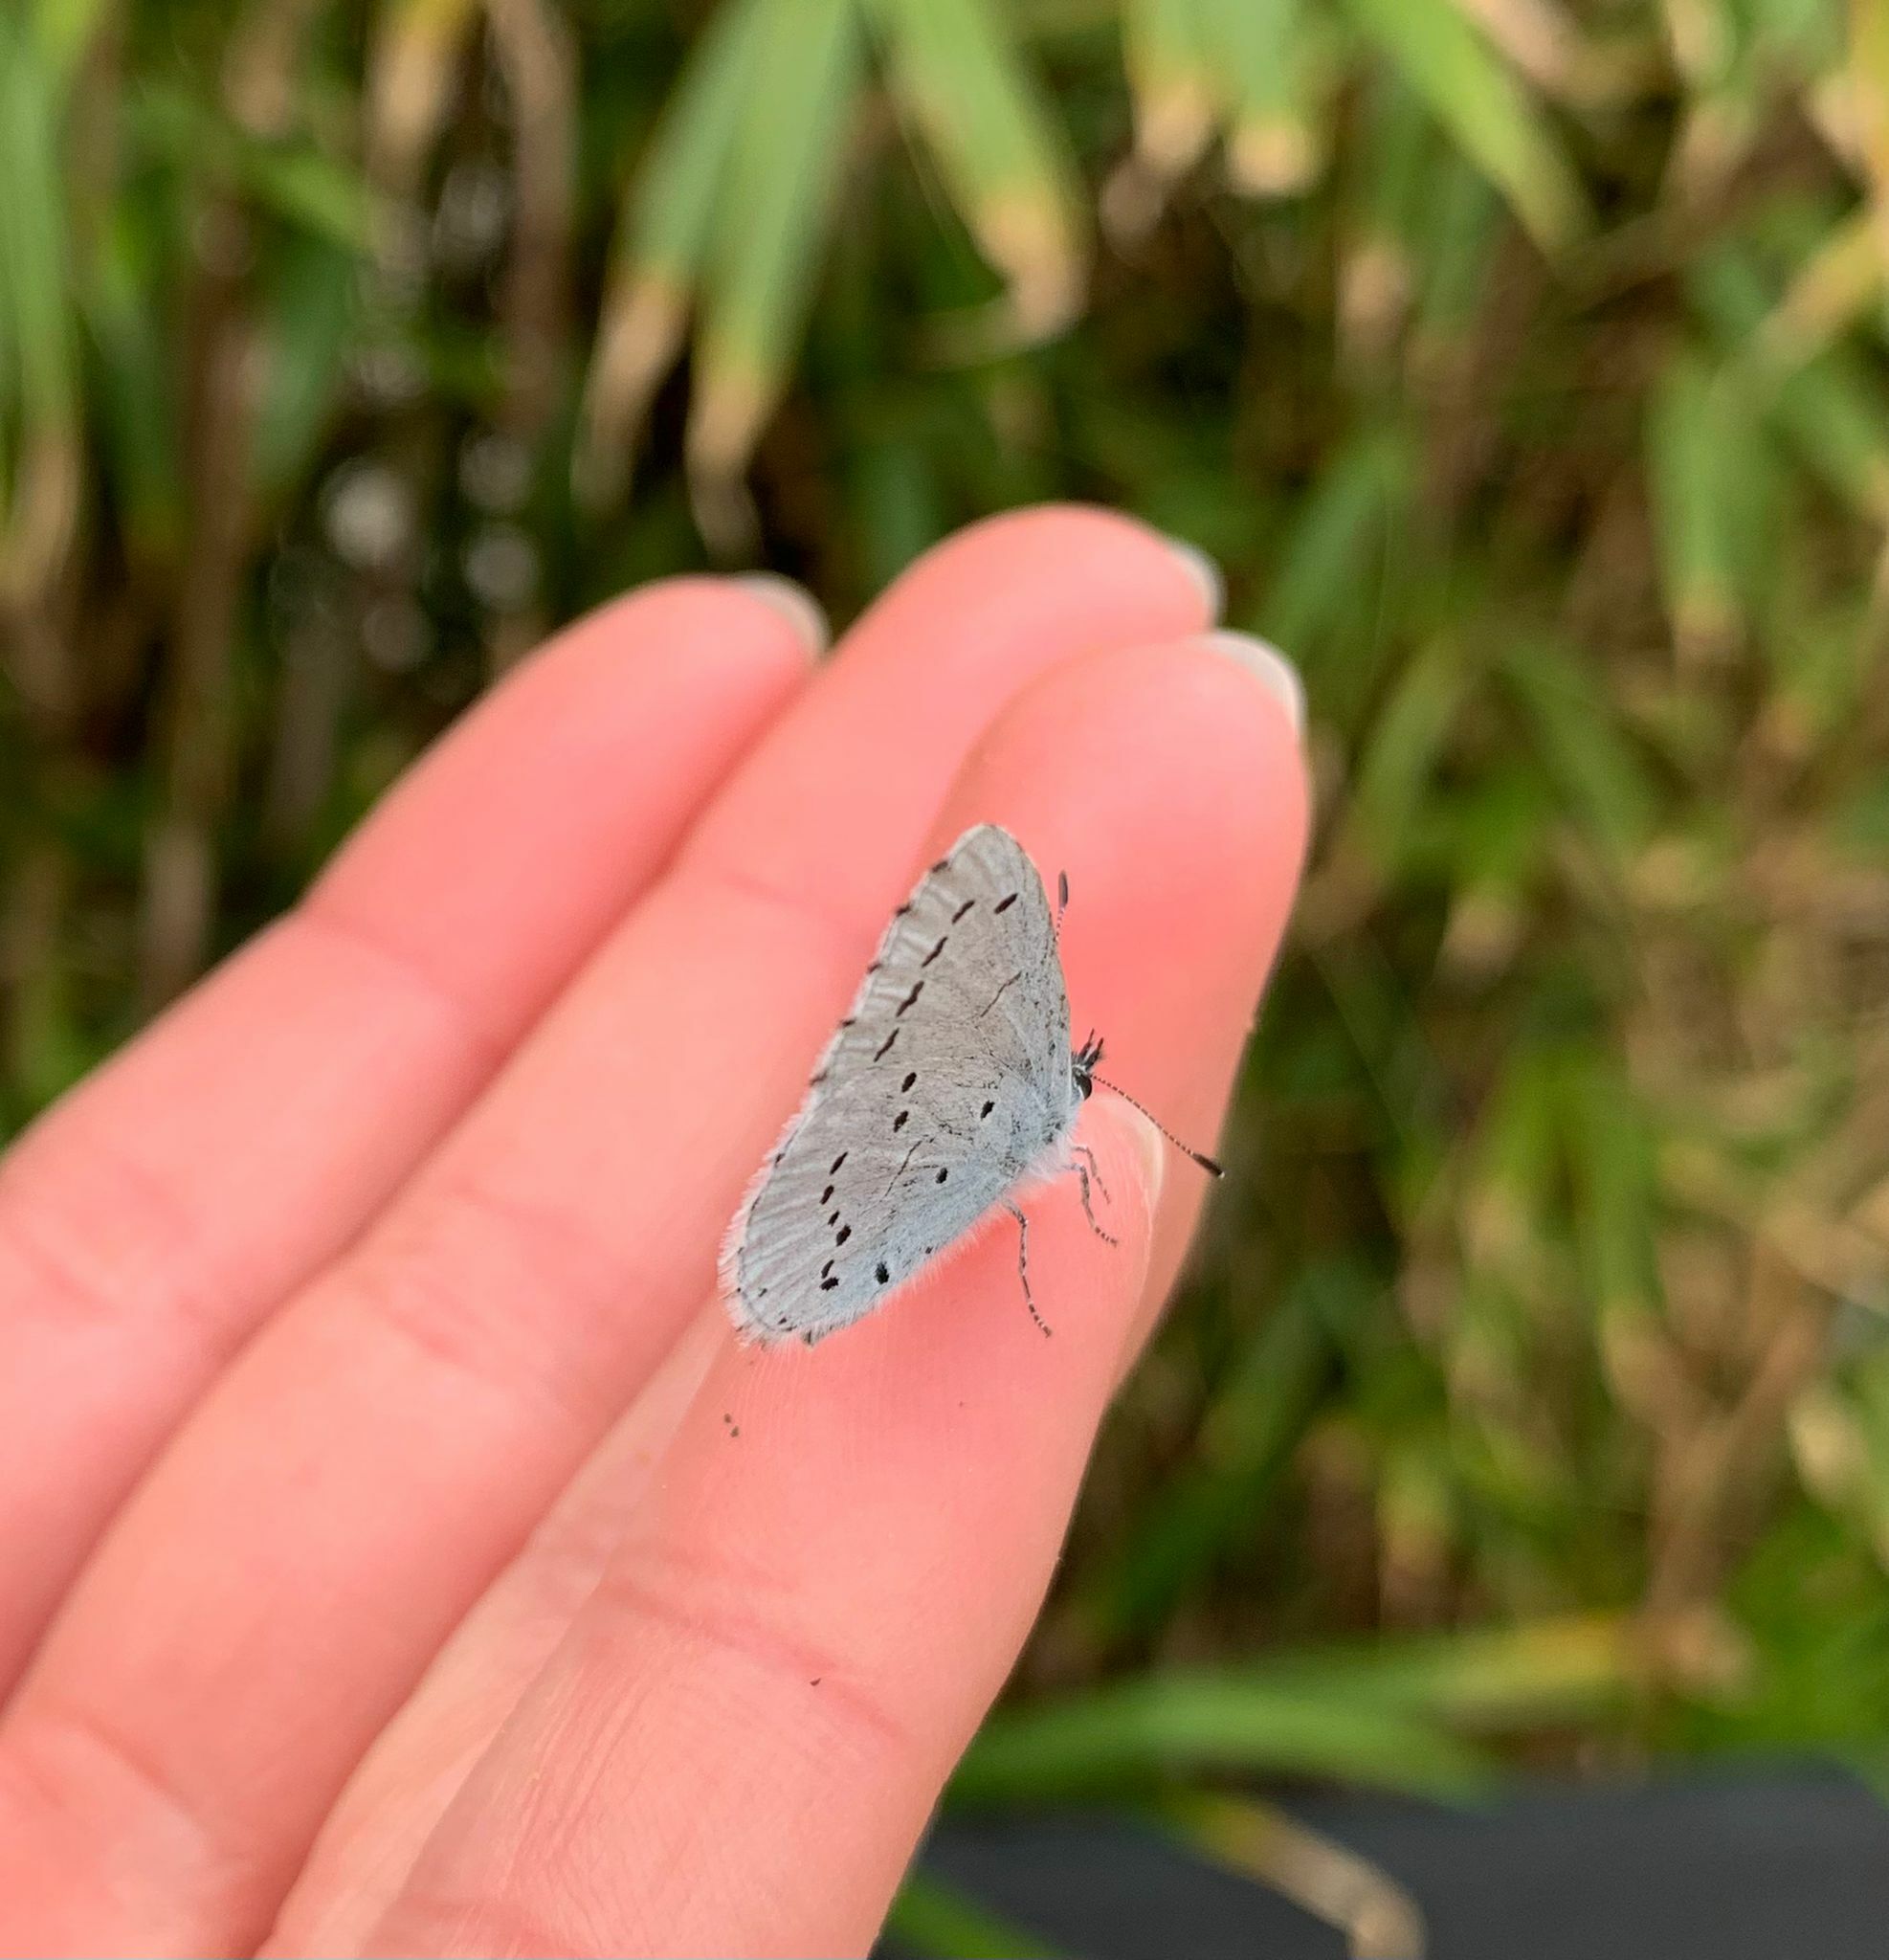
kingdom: Animalia
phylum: Arthropoda
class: Insecta
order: Lepidoptera
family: Lycaenidae
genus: Celastrina
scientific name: Celastrina argiolus
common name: Holly blue
